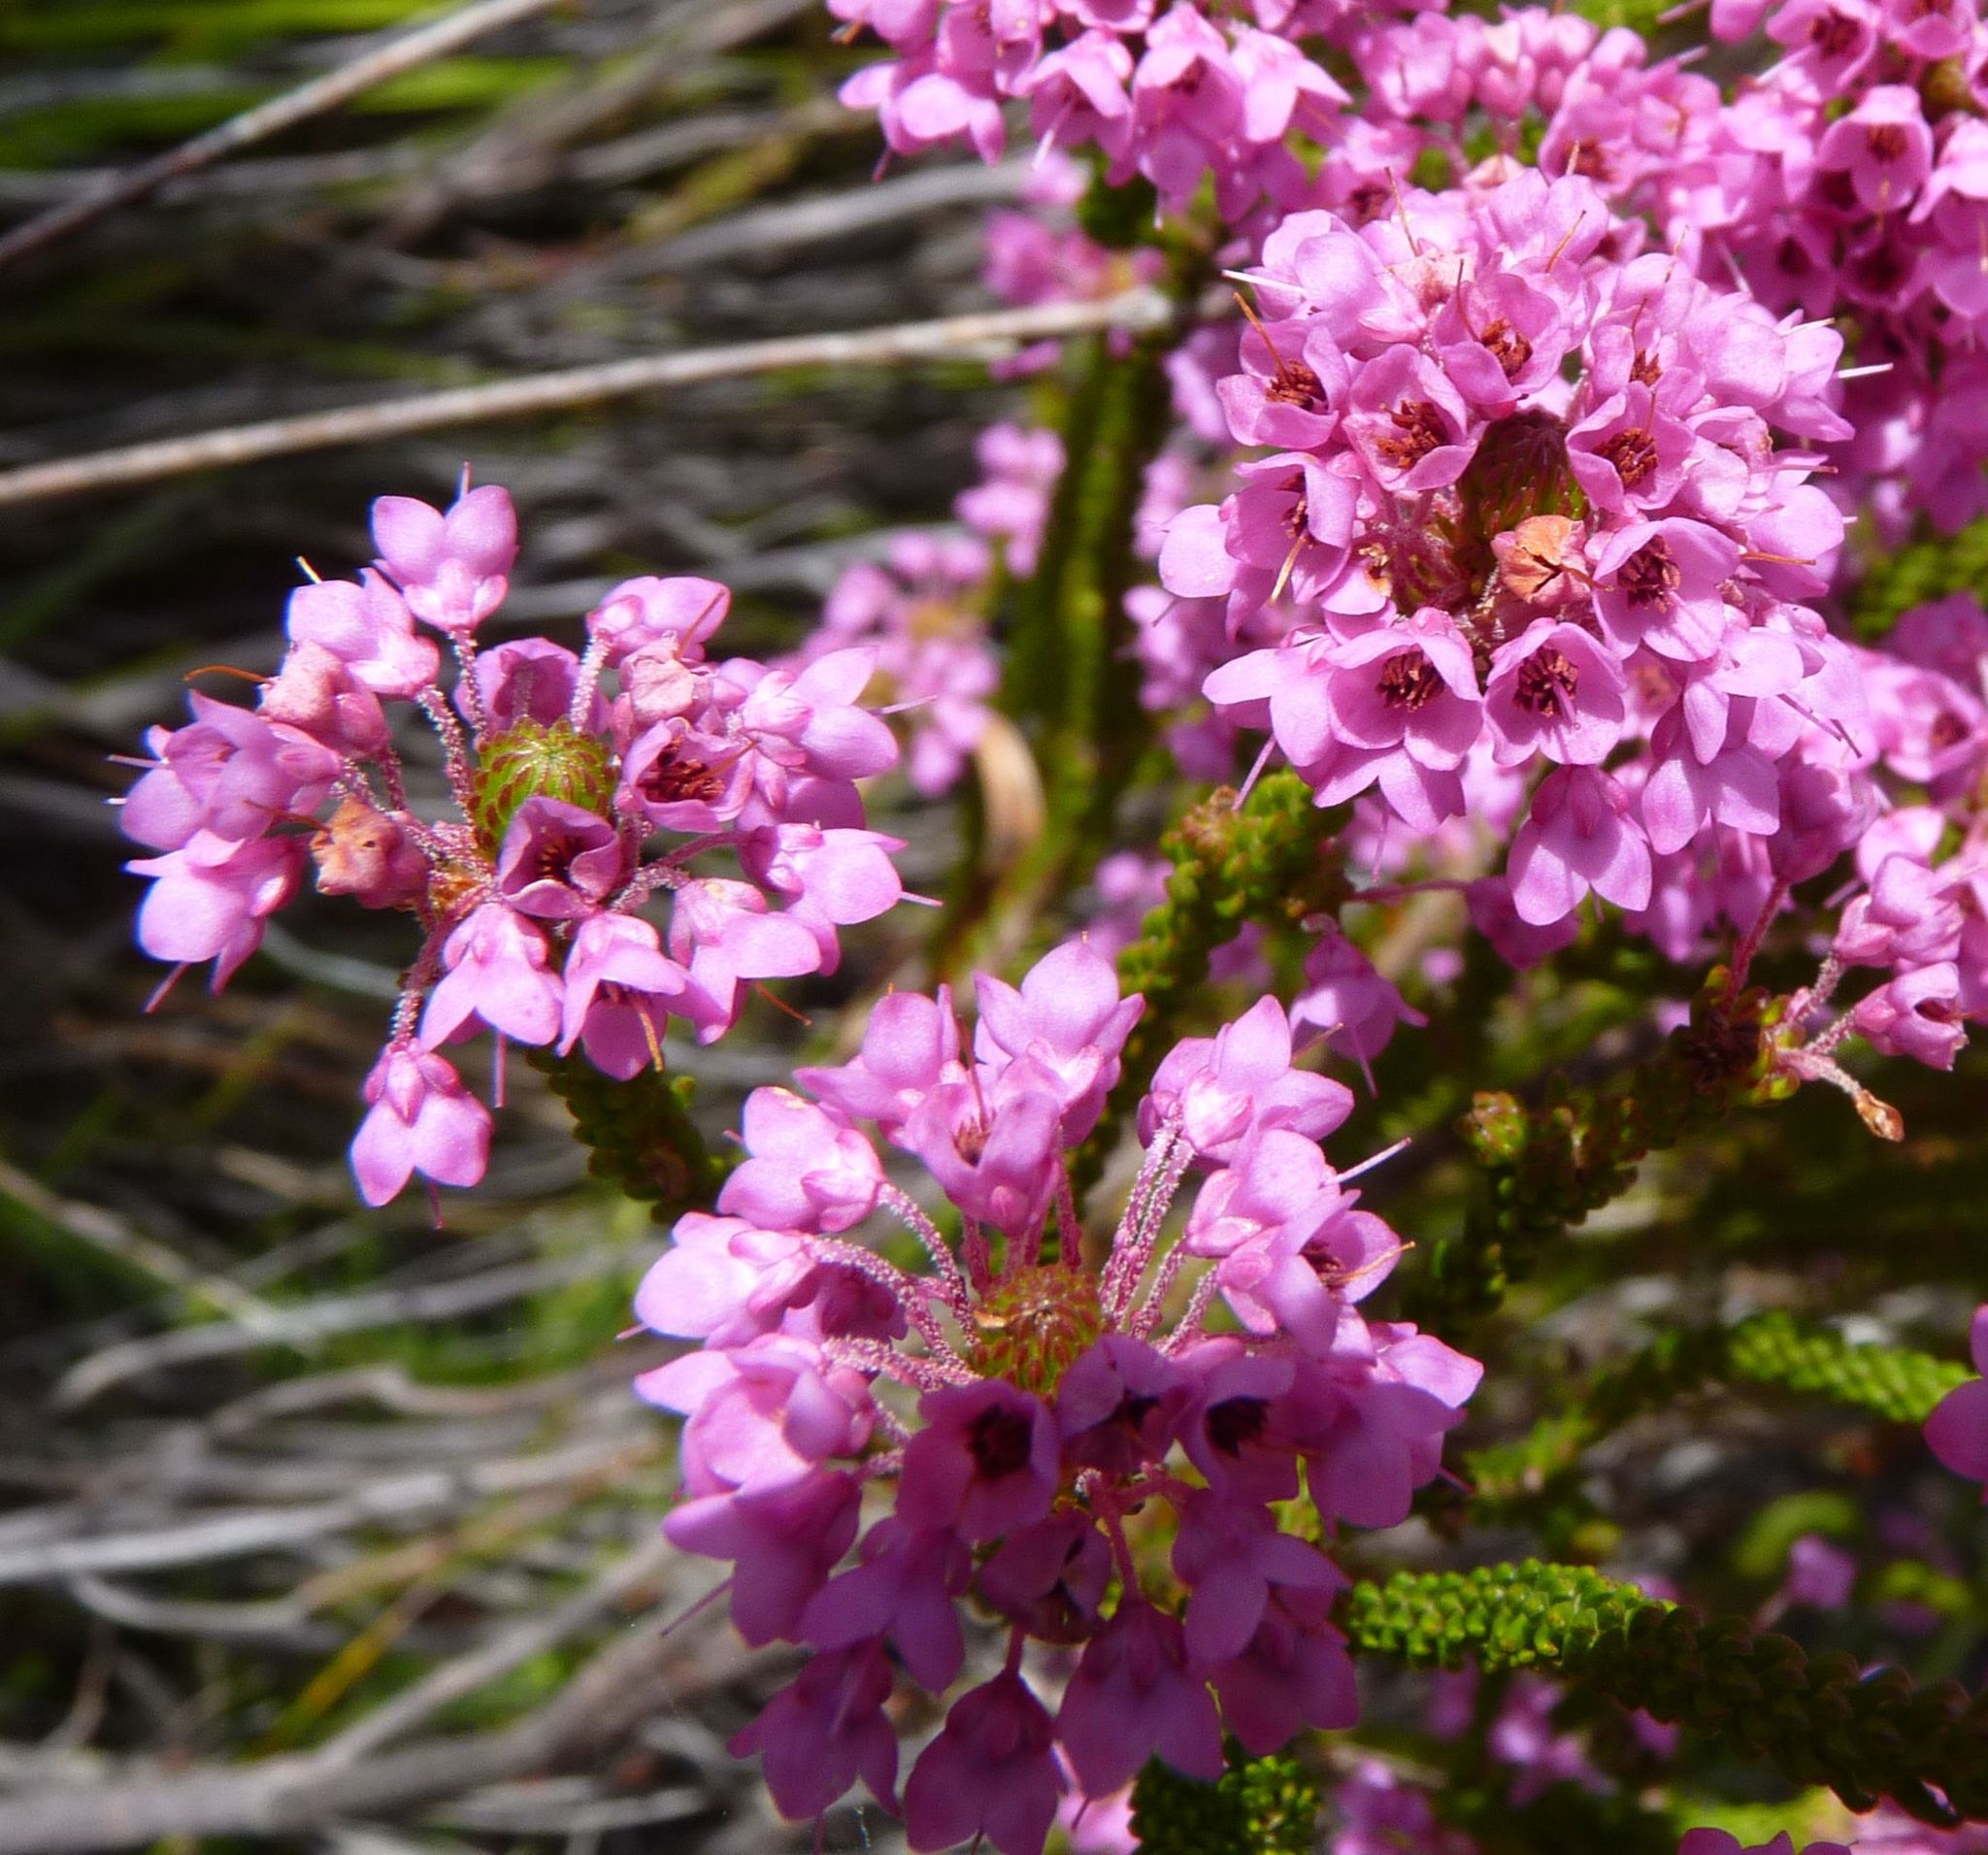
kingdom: Plantae
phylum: Tracheophyta
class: Magnoliopsida
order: Ericales
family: Ericaceae
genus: Erica
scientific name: Erica seriphiifolia
